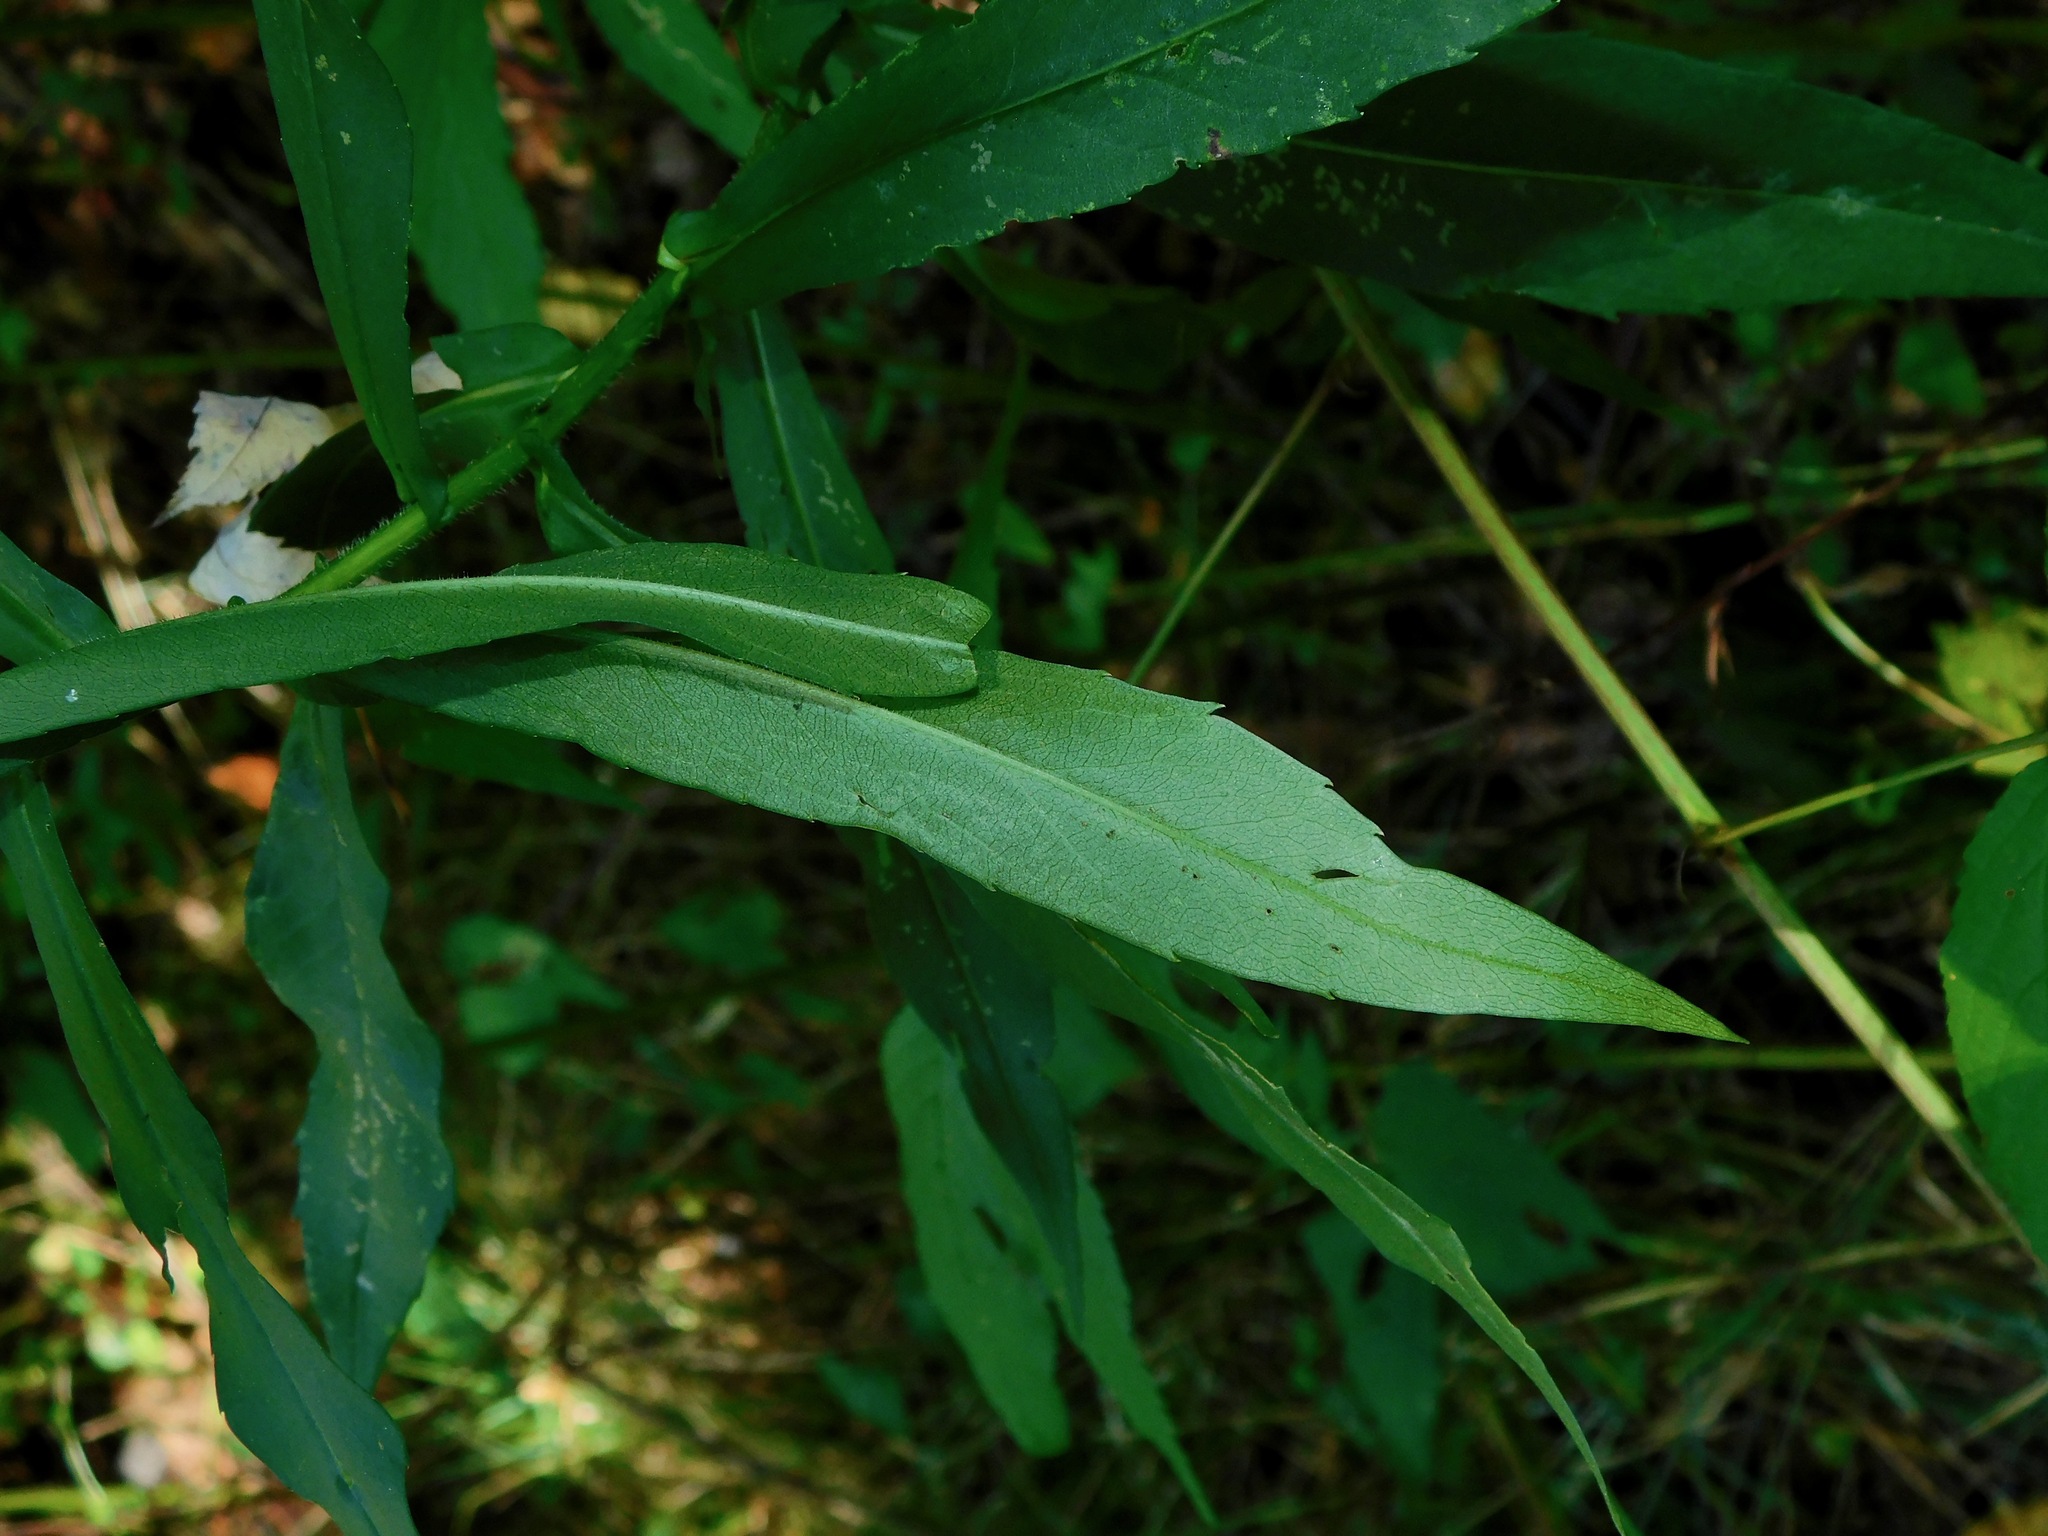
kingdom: Plantae
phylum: Tracheophyta
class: Magnoliopsida
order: Asterales
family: Asteraceae
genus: Symphyotrichum
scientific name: Symphyotrichum puniceum
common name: Bog aster
